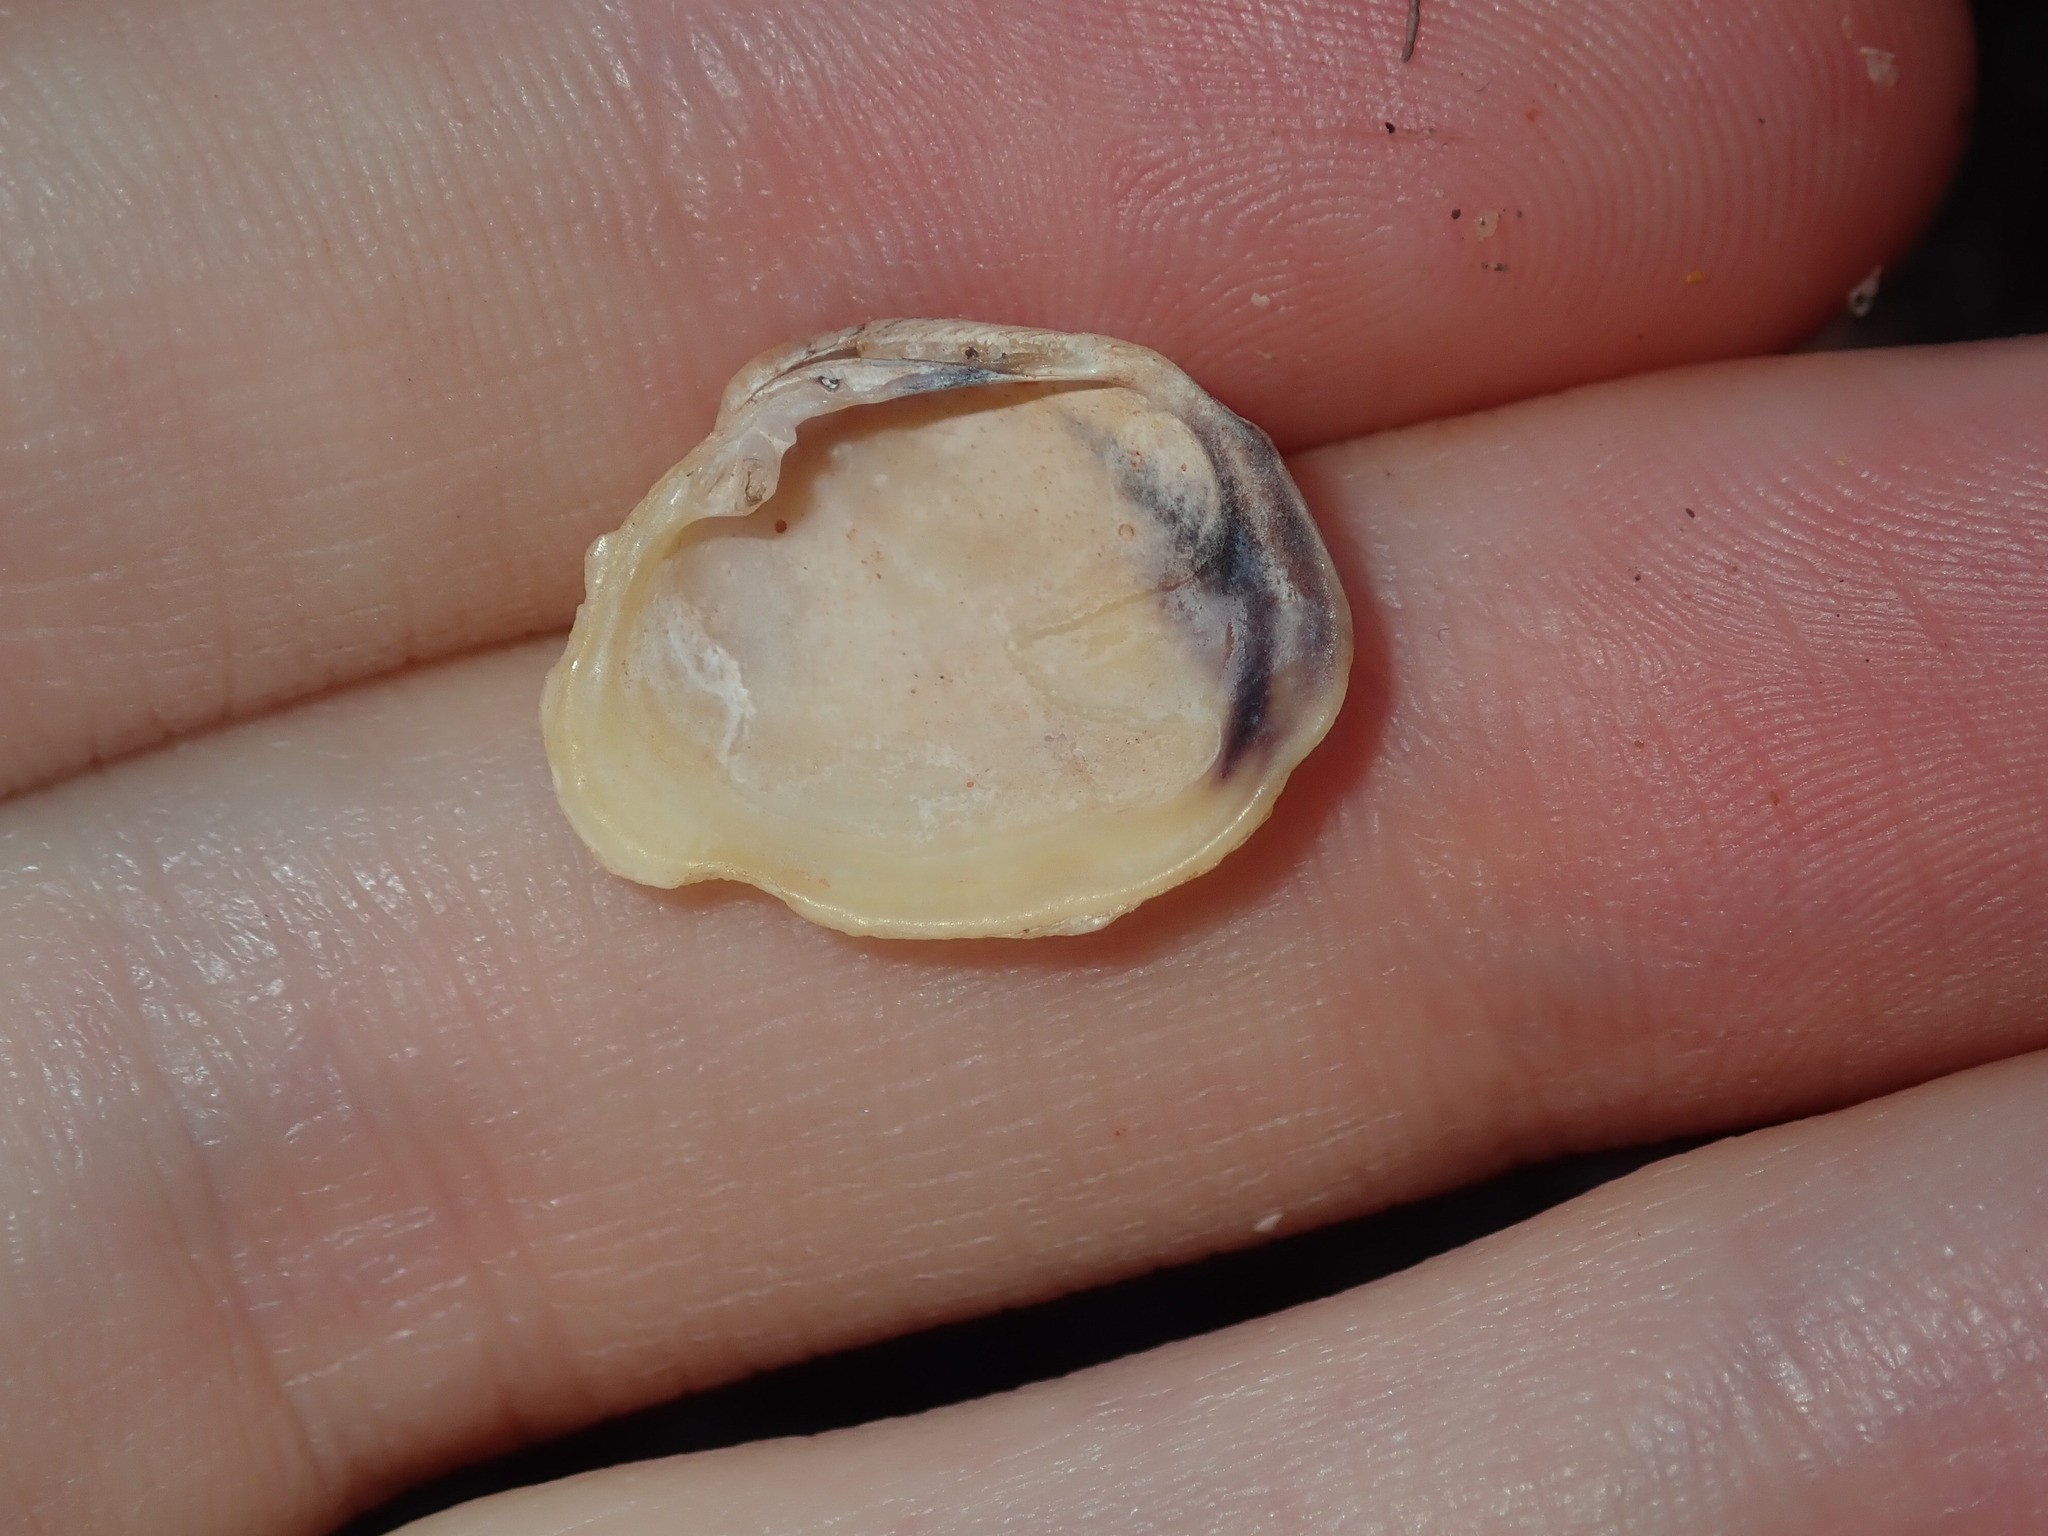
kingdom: Animalia
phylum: Mollusca
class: Bivalvia
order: Venerida
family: Veneridae
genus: Irus
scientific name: Irus crenatus
